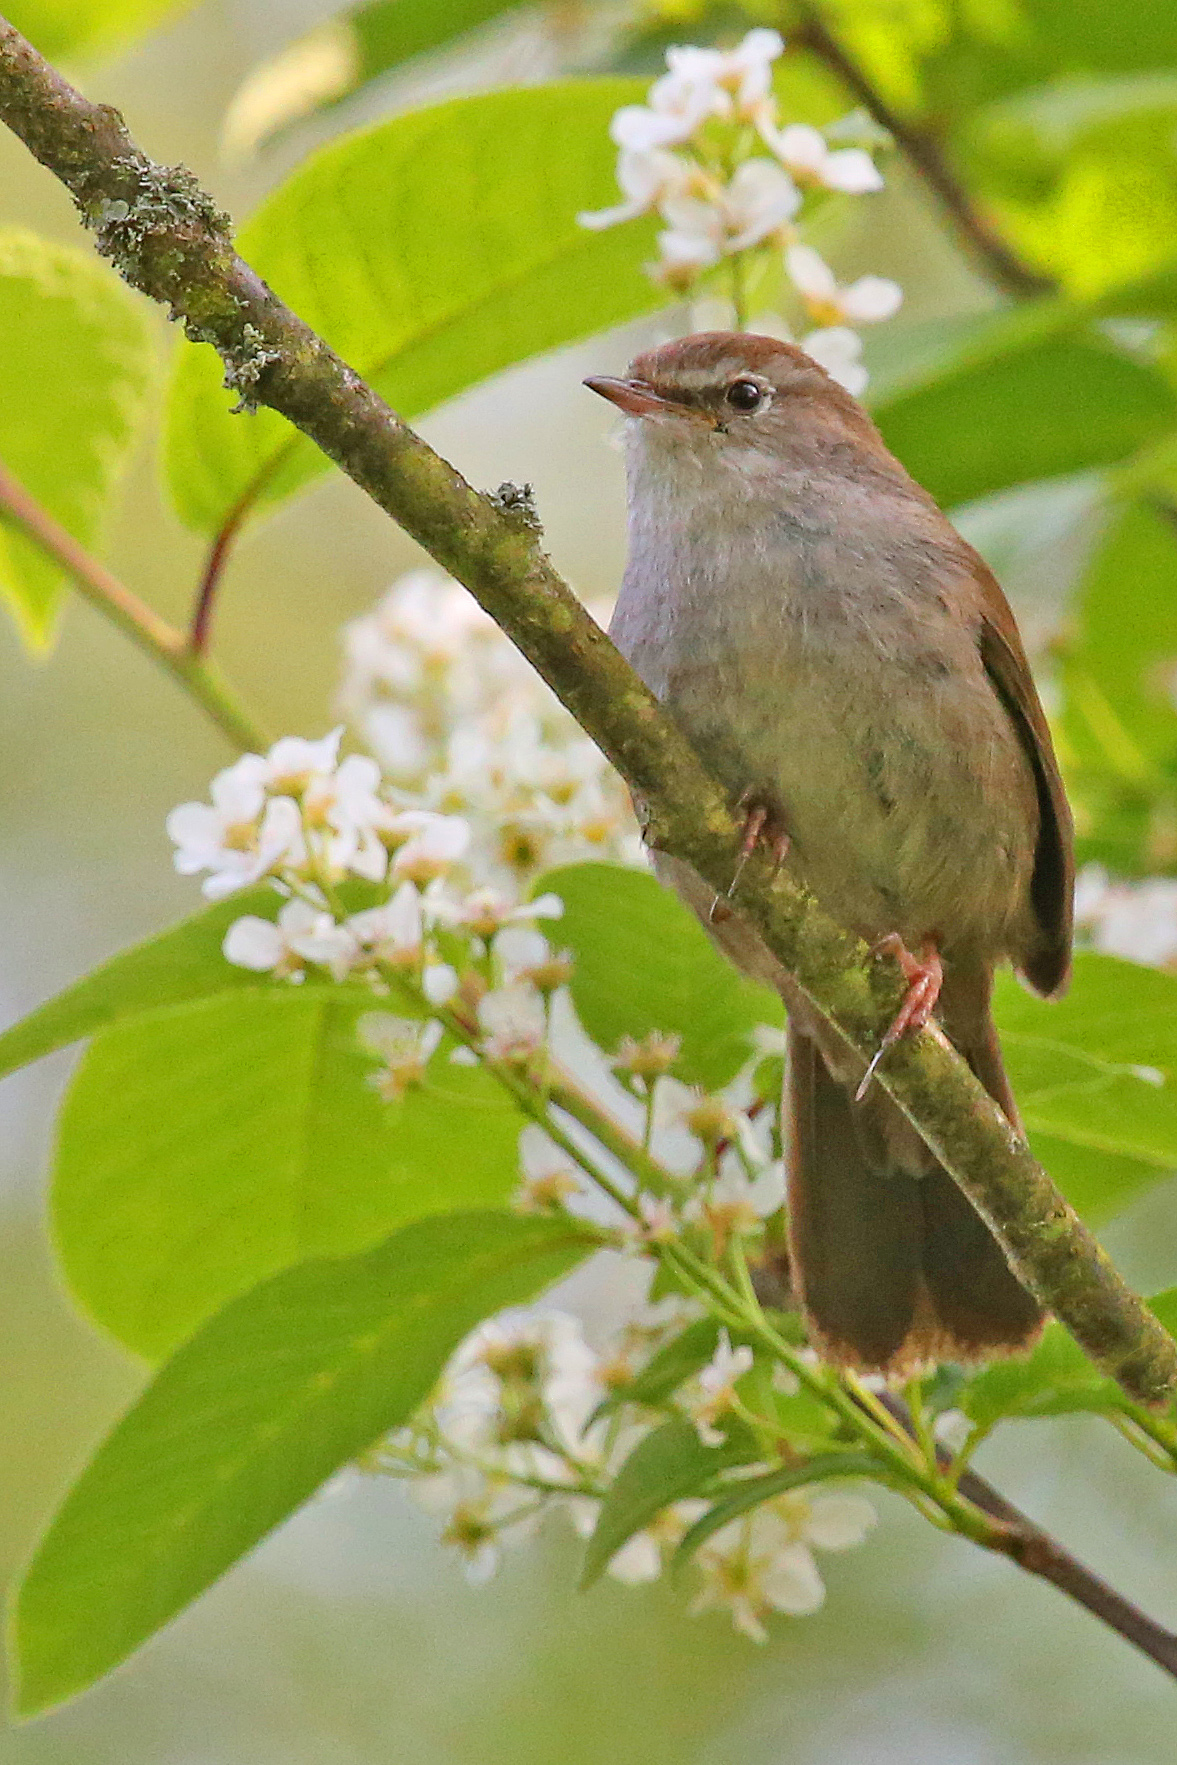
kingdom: Animalia
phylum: Chordata
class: Aves
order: Passeriformes
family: Cettiidae
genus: Cettia
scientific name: Cettia cetti
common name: Cetti's warbler
